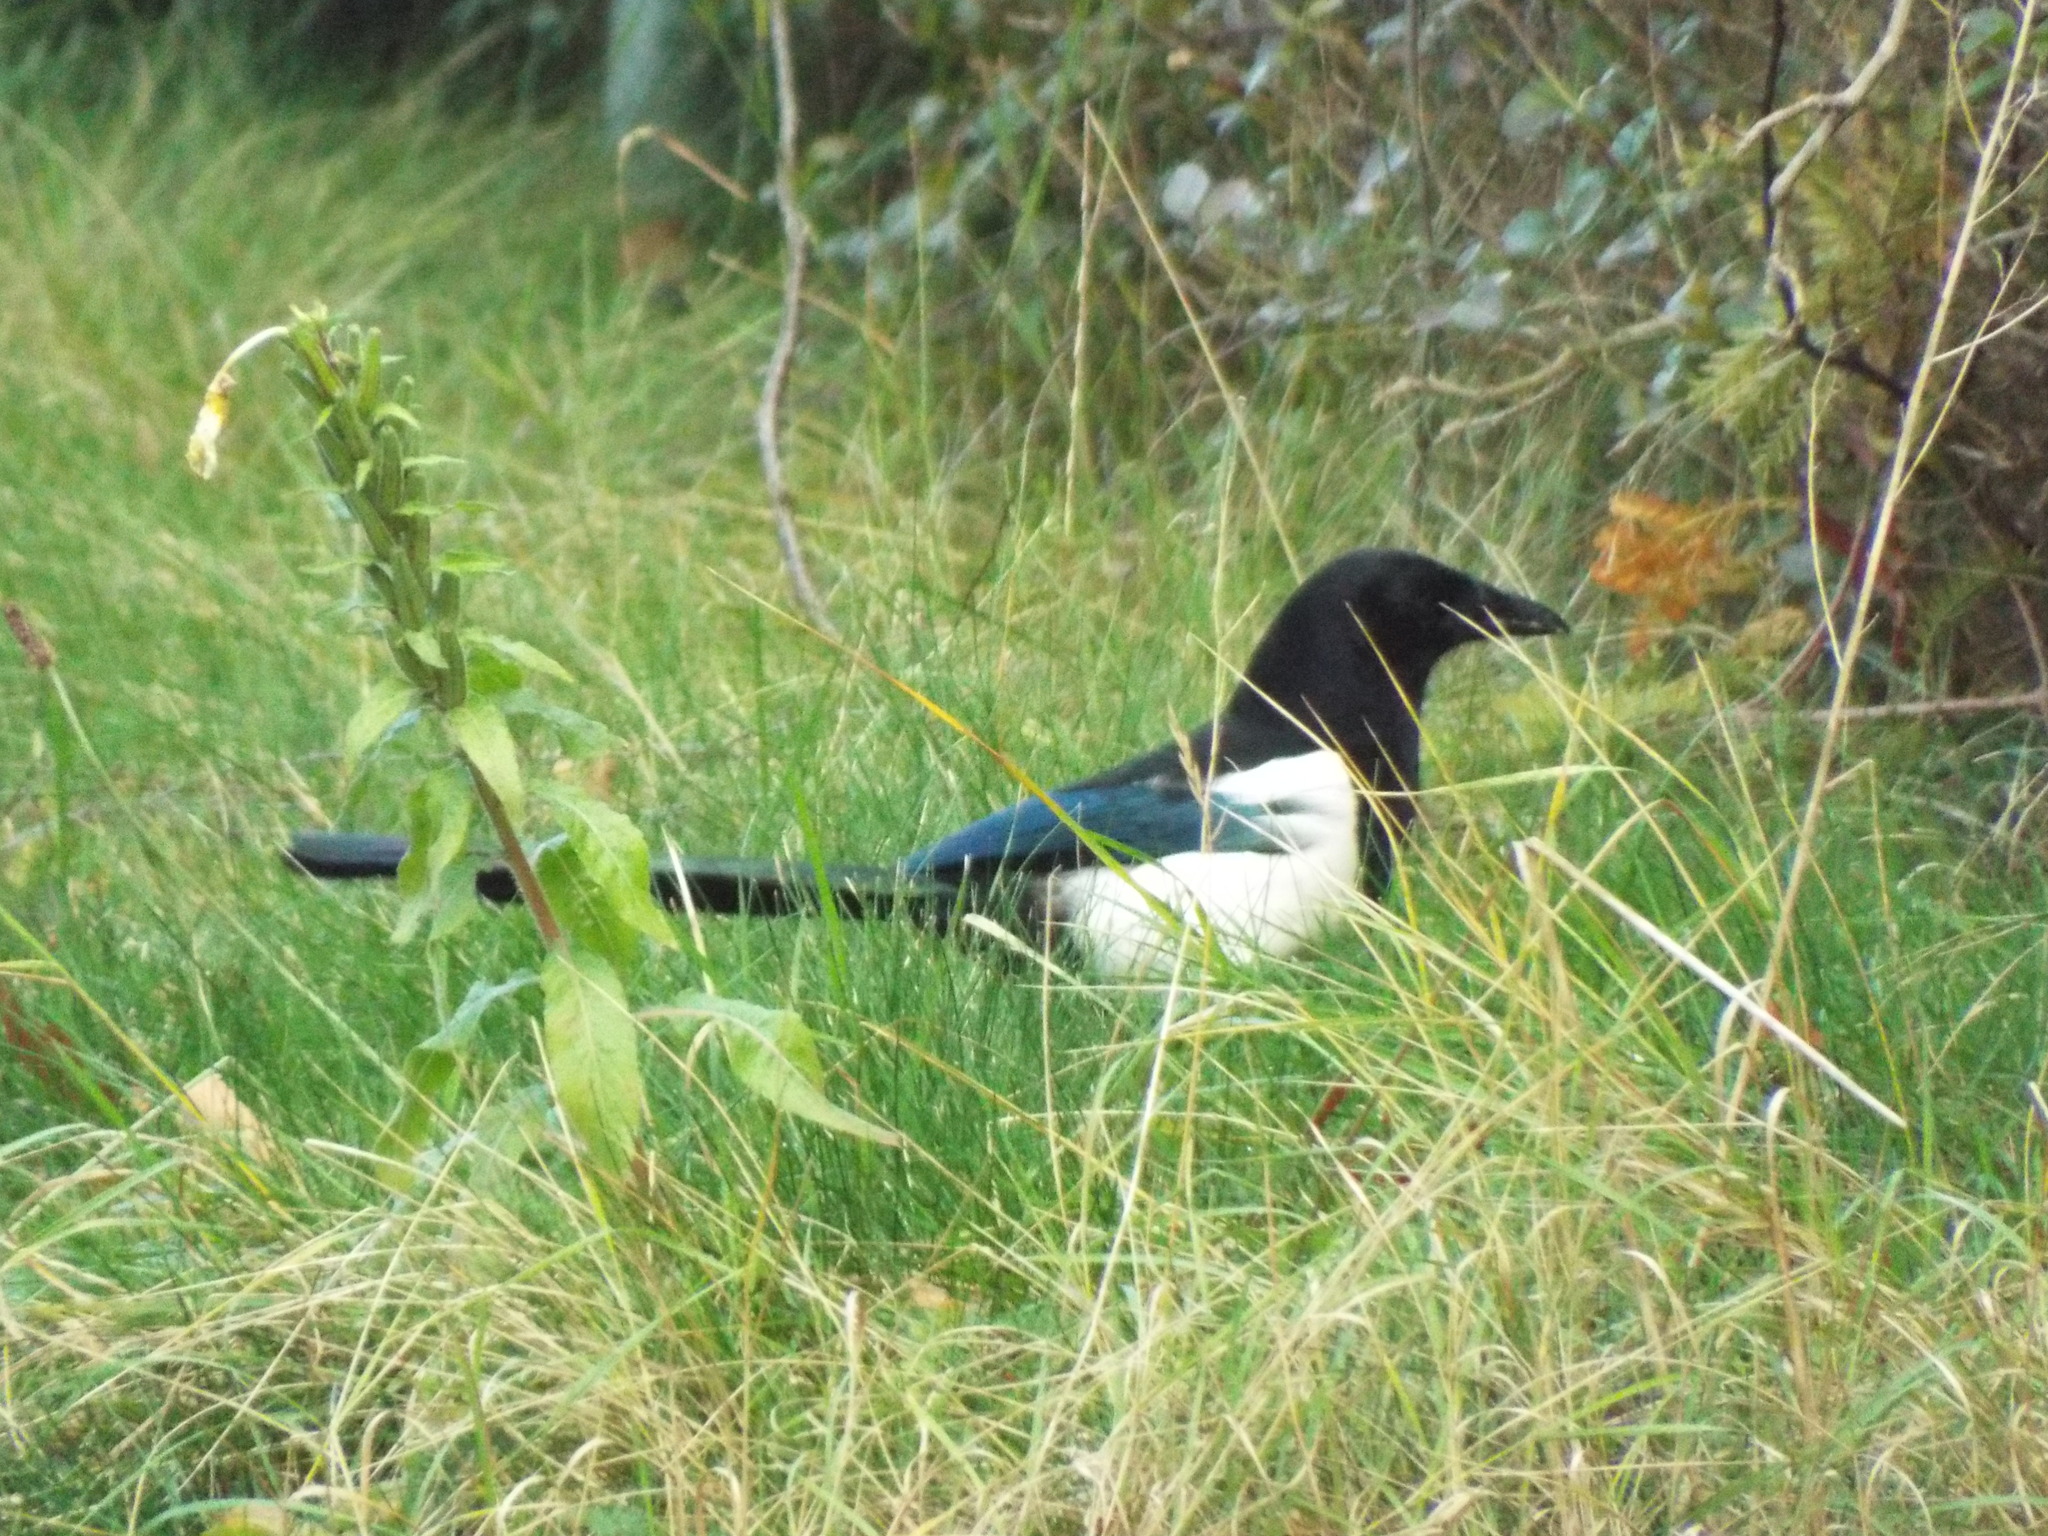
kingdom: Animalia
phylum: Chordata
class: Aves
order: Passeriformes
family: Corvidae
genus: Pica
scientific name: Pica pica
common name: Eurasian magpie
